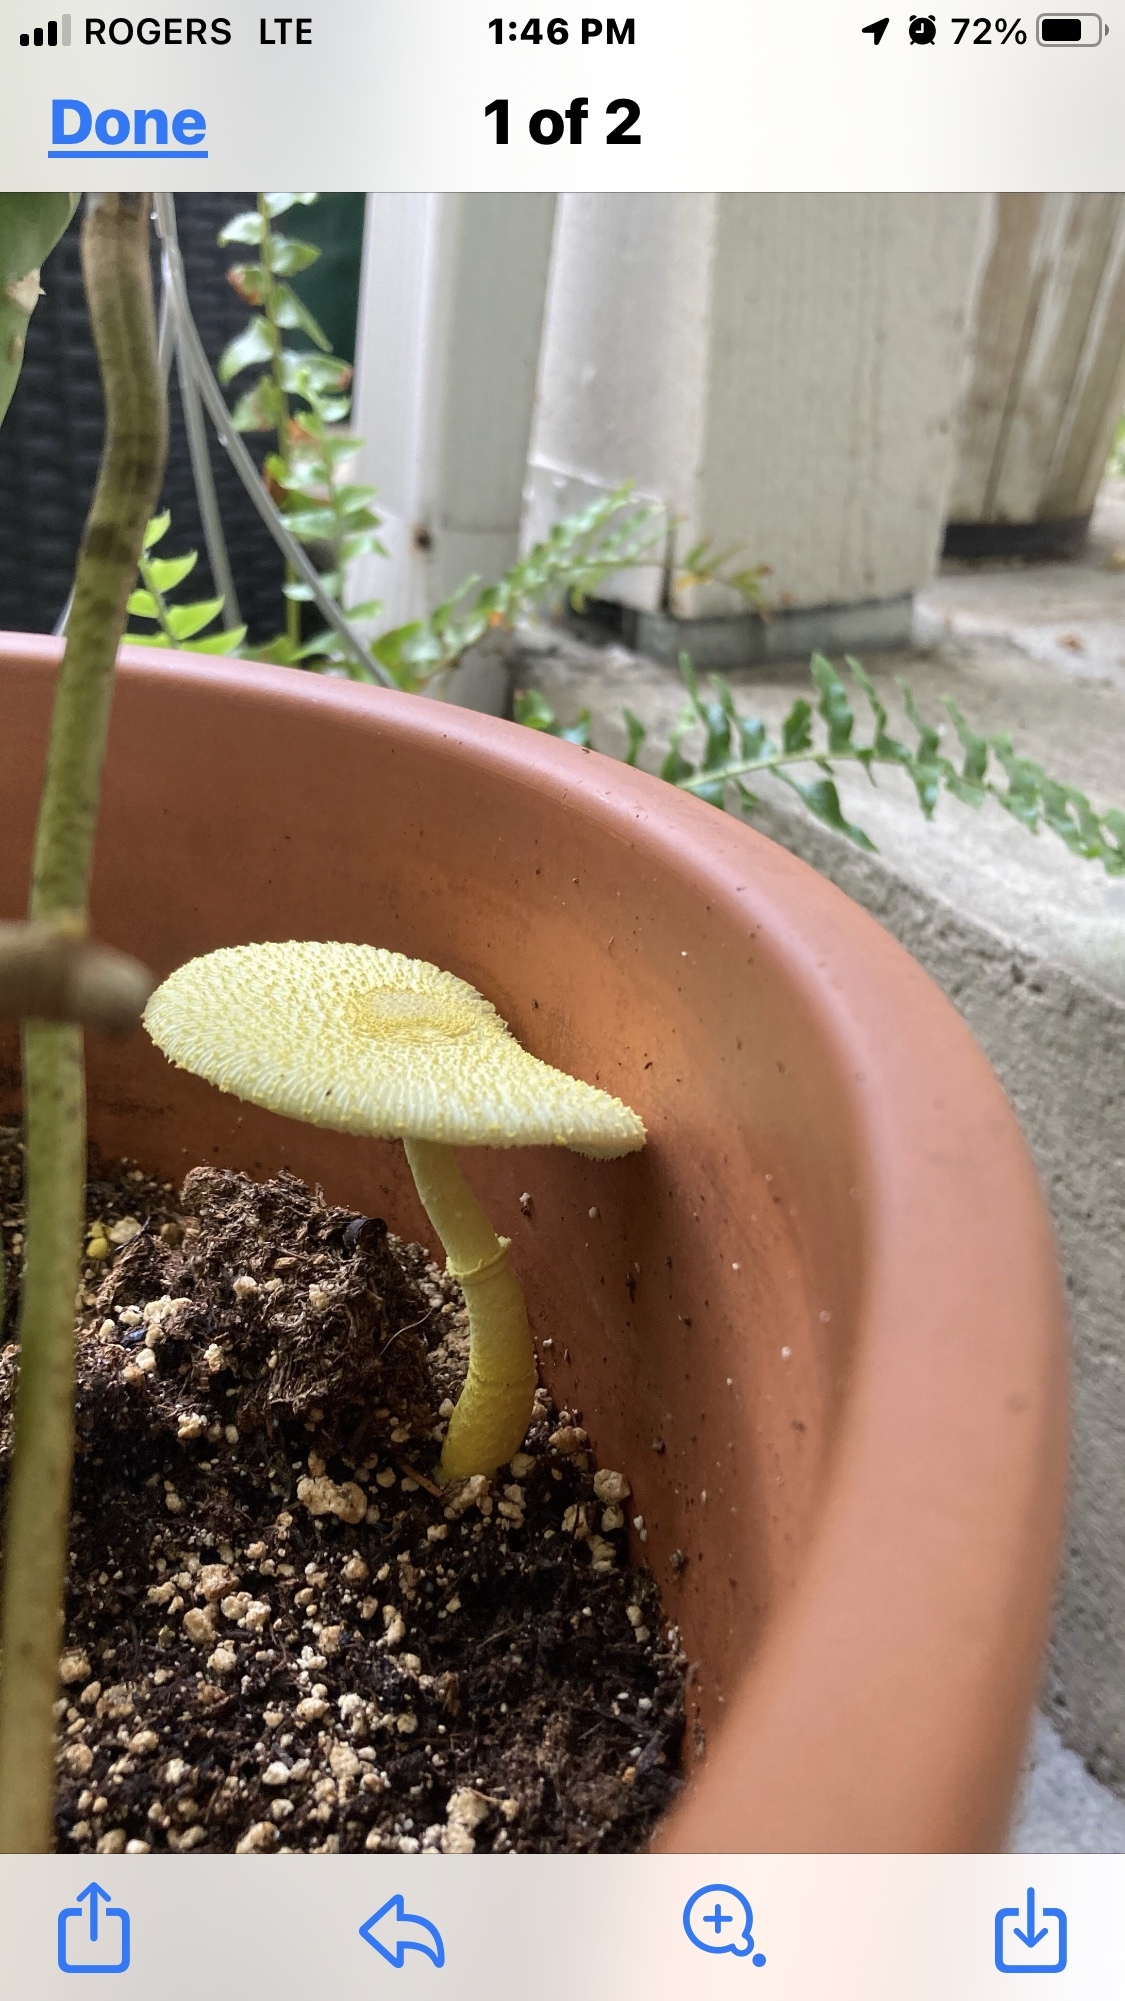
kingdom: Fungi
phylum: Basidiomycota
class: Agaricomycetes
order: Agaricales
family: Agaricaceae
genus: Leucocoprinus
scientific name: Leucocoprinus birnbaumii
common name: Plantpot dapperling
